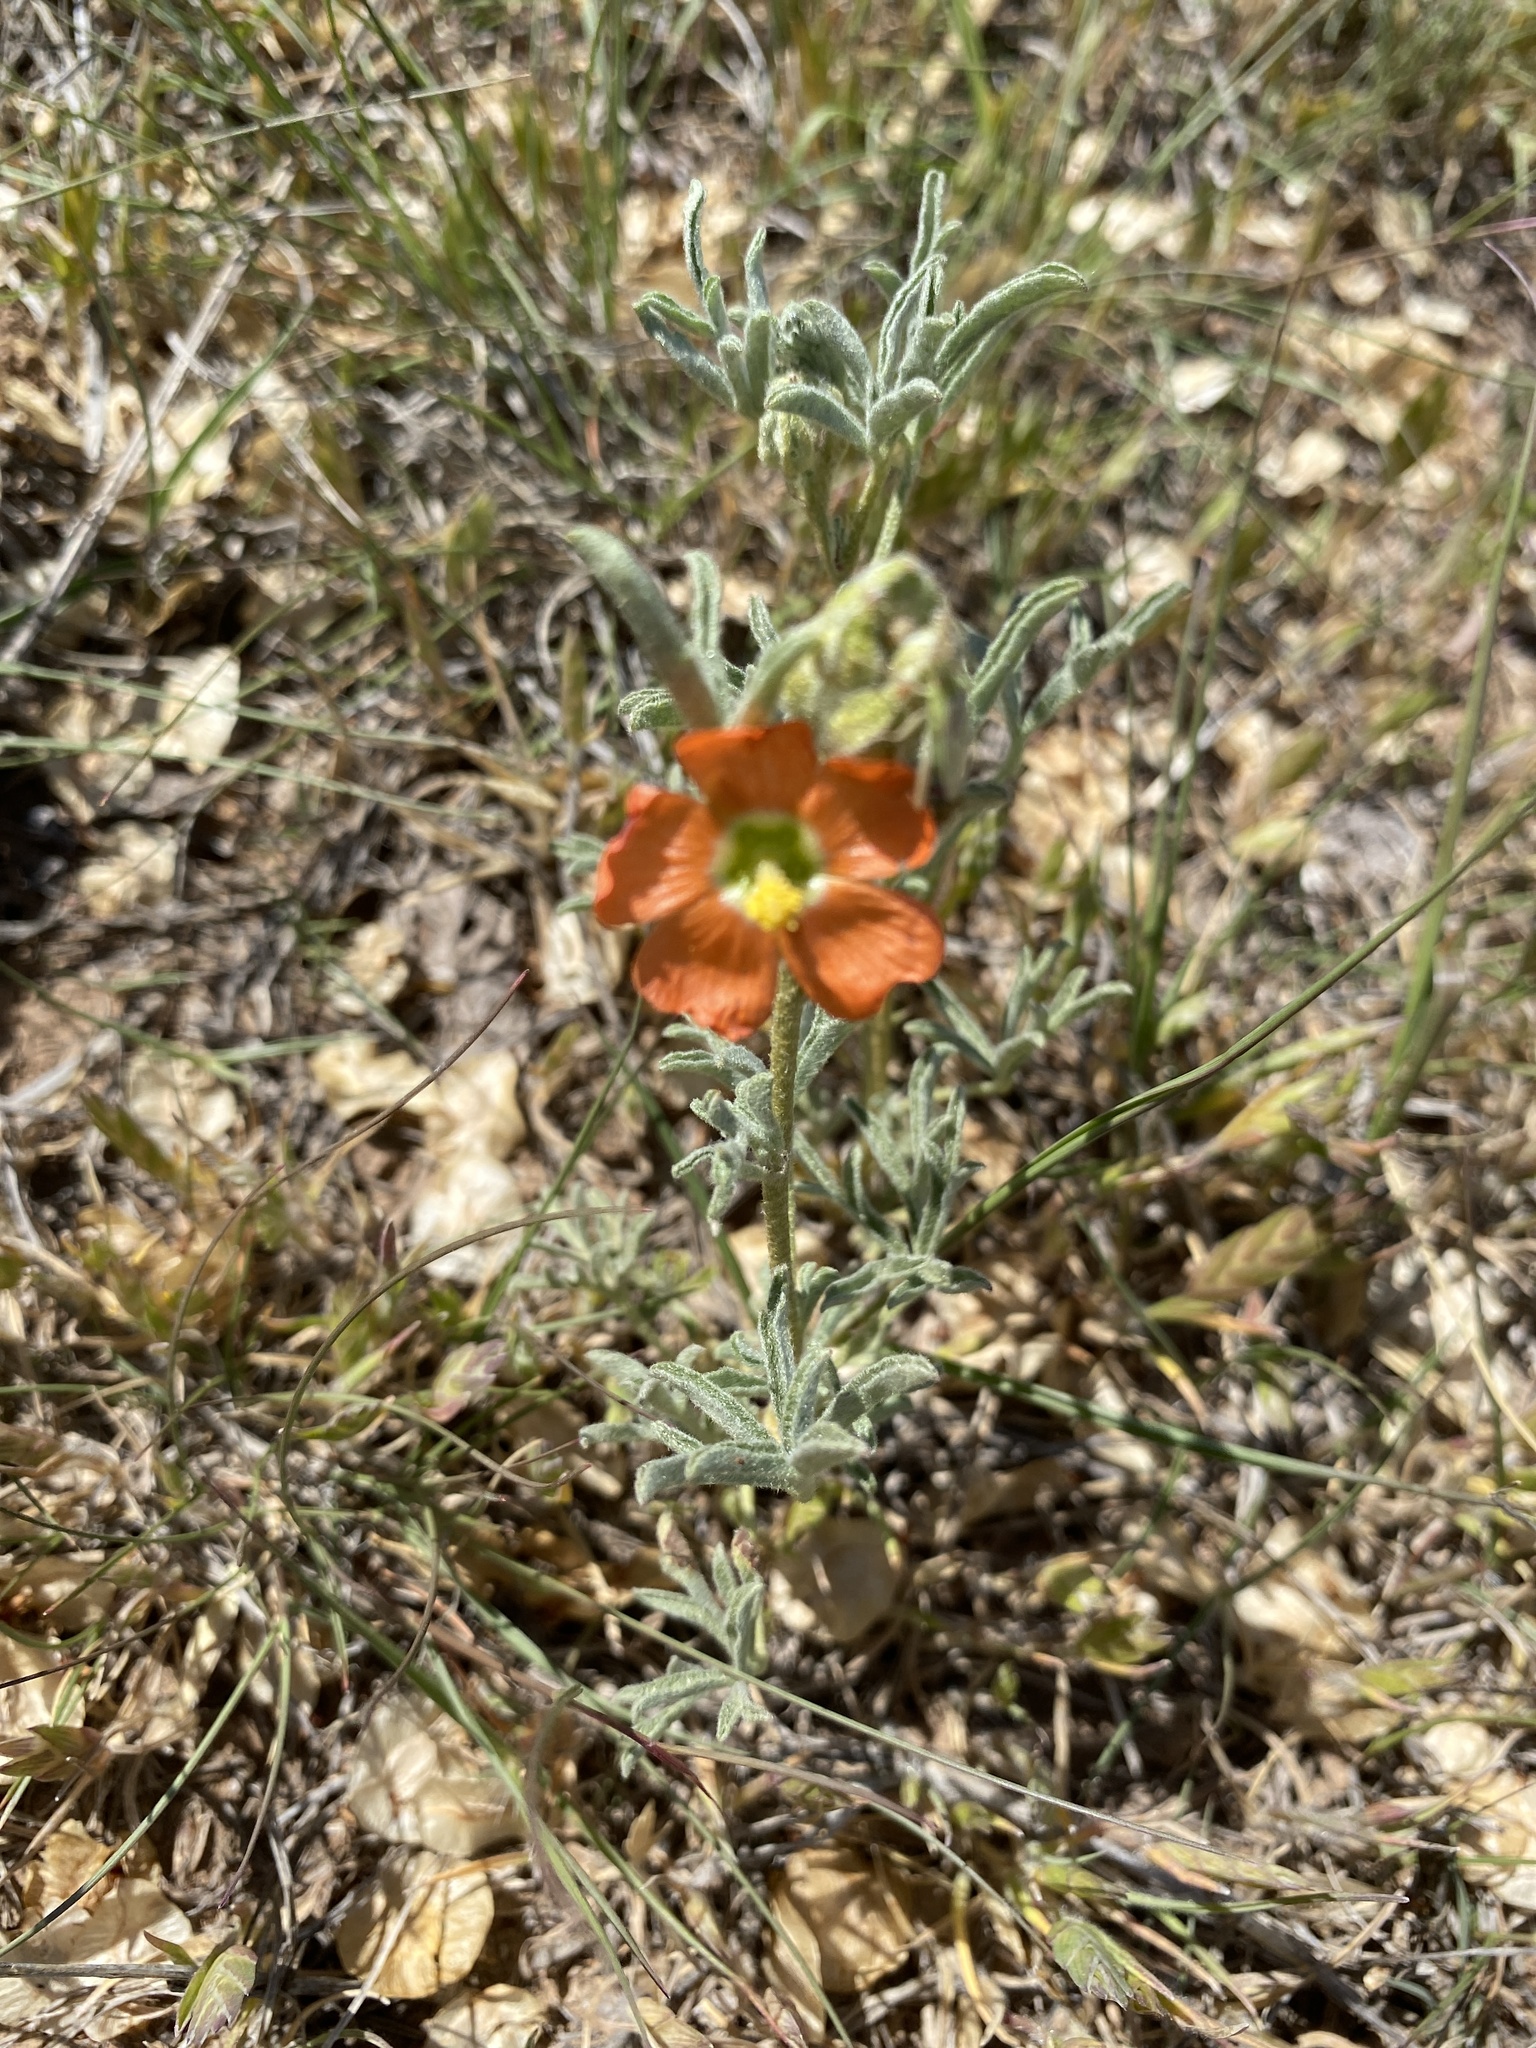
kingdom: Plantae
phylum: Tracheophyta
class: Magnoliopsida
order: Malvales
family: Malvaceae
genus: Sphaeralcea
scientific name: Sphaeralcea coccinea
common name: Moss-rose
